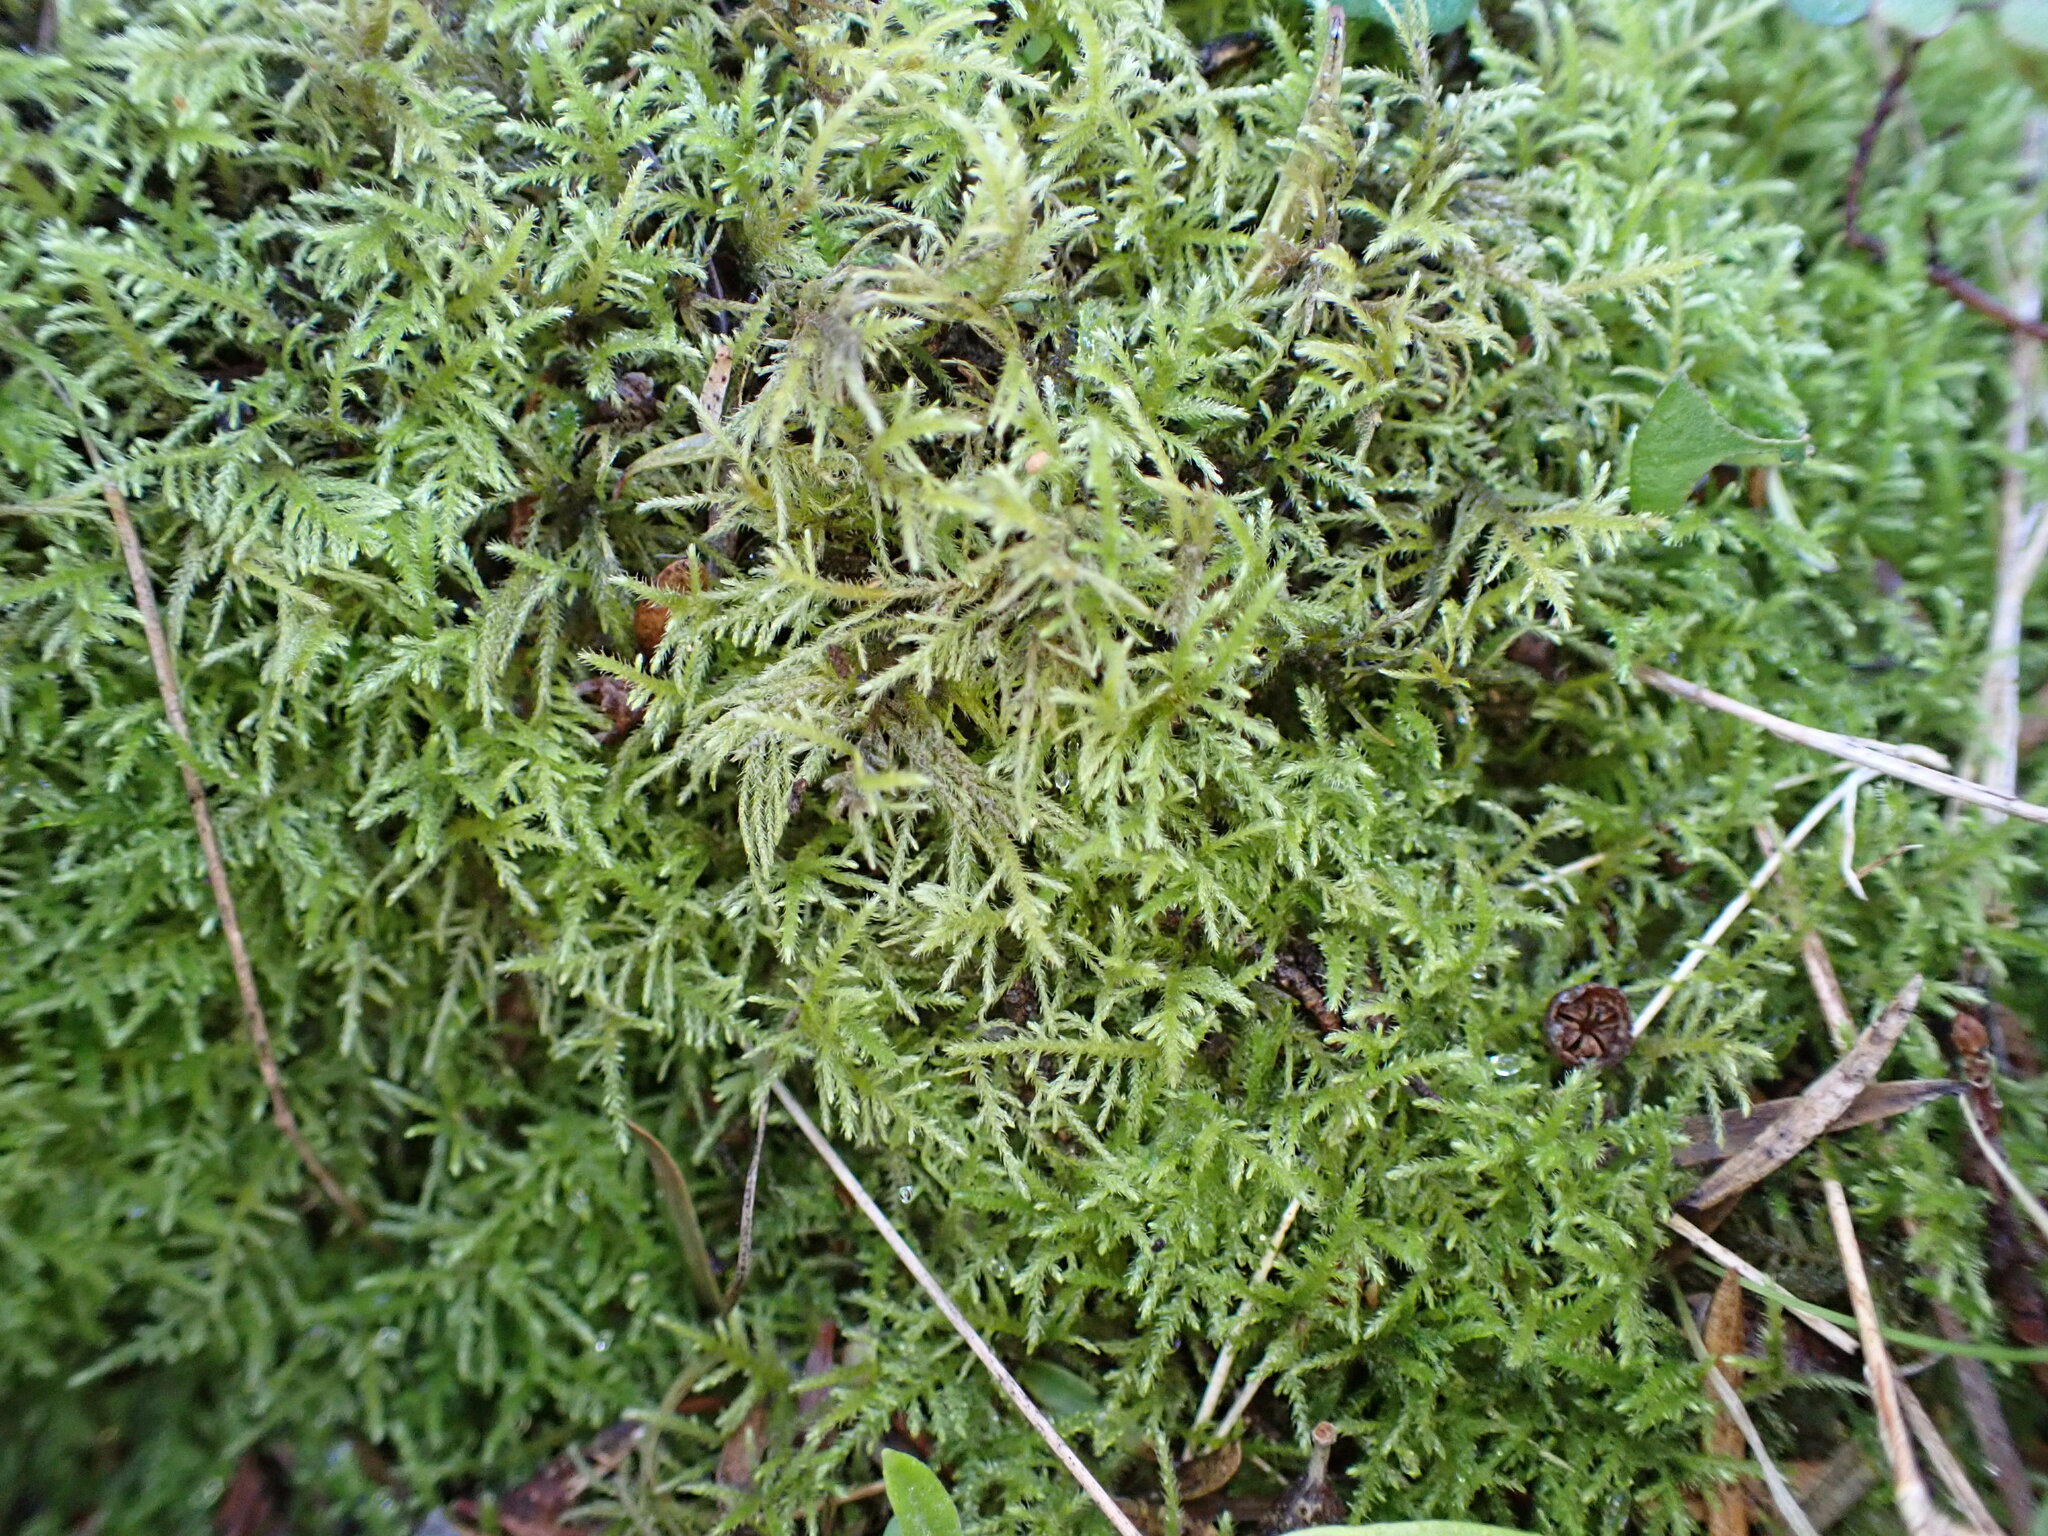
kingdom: Plantae
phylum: Bryophyta
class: Bryopsida
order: Hypnales
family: Brachytheciaceae
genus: Kindbergia
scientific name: Kindbergia praelonga
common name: Slender beaked moss
